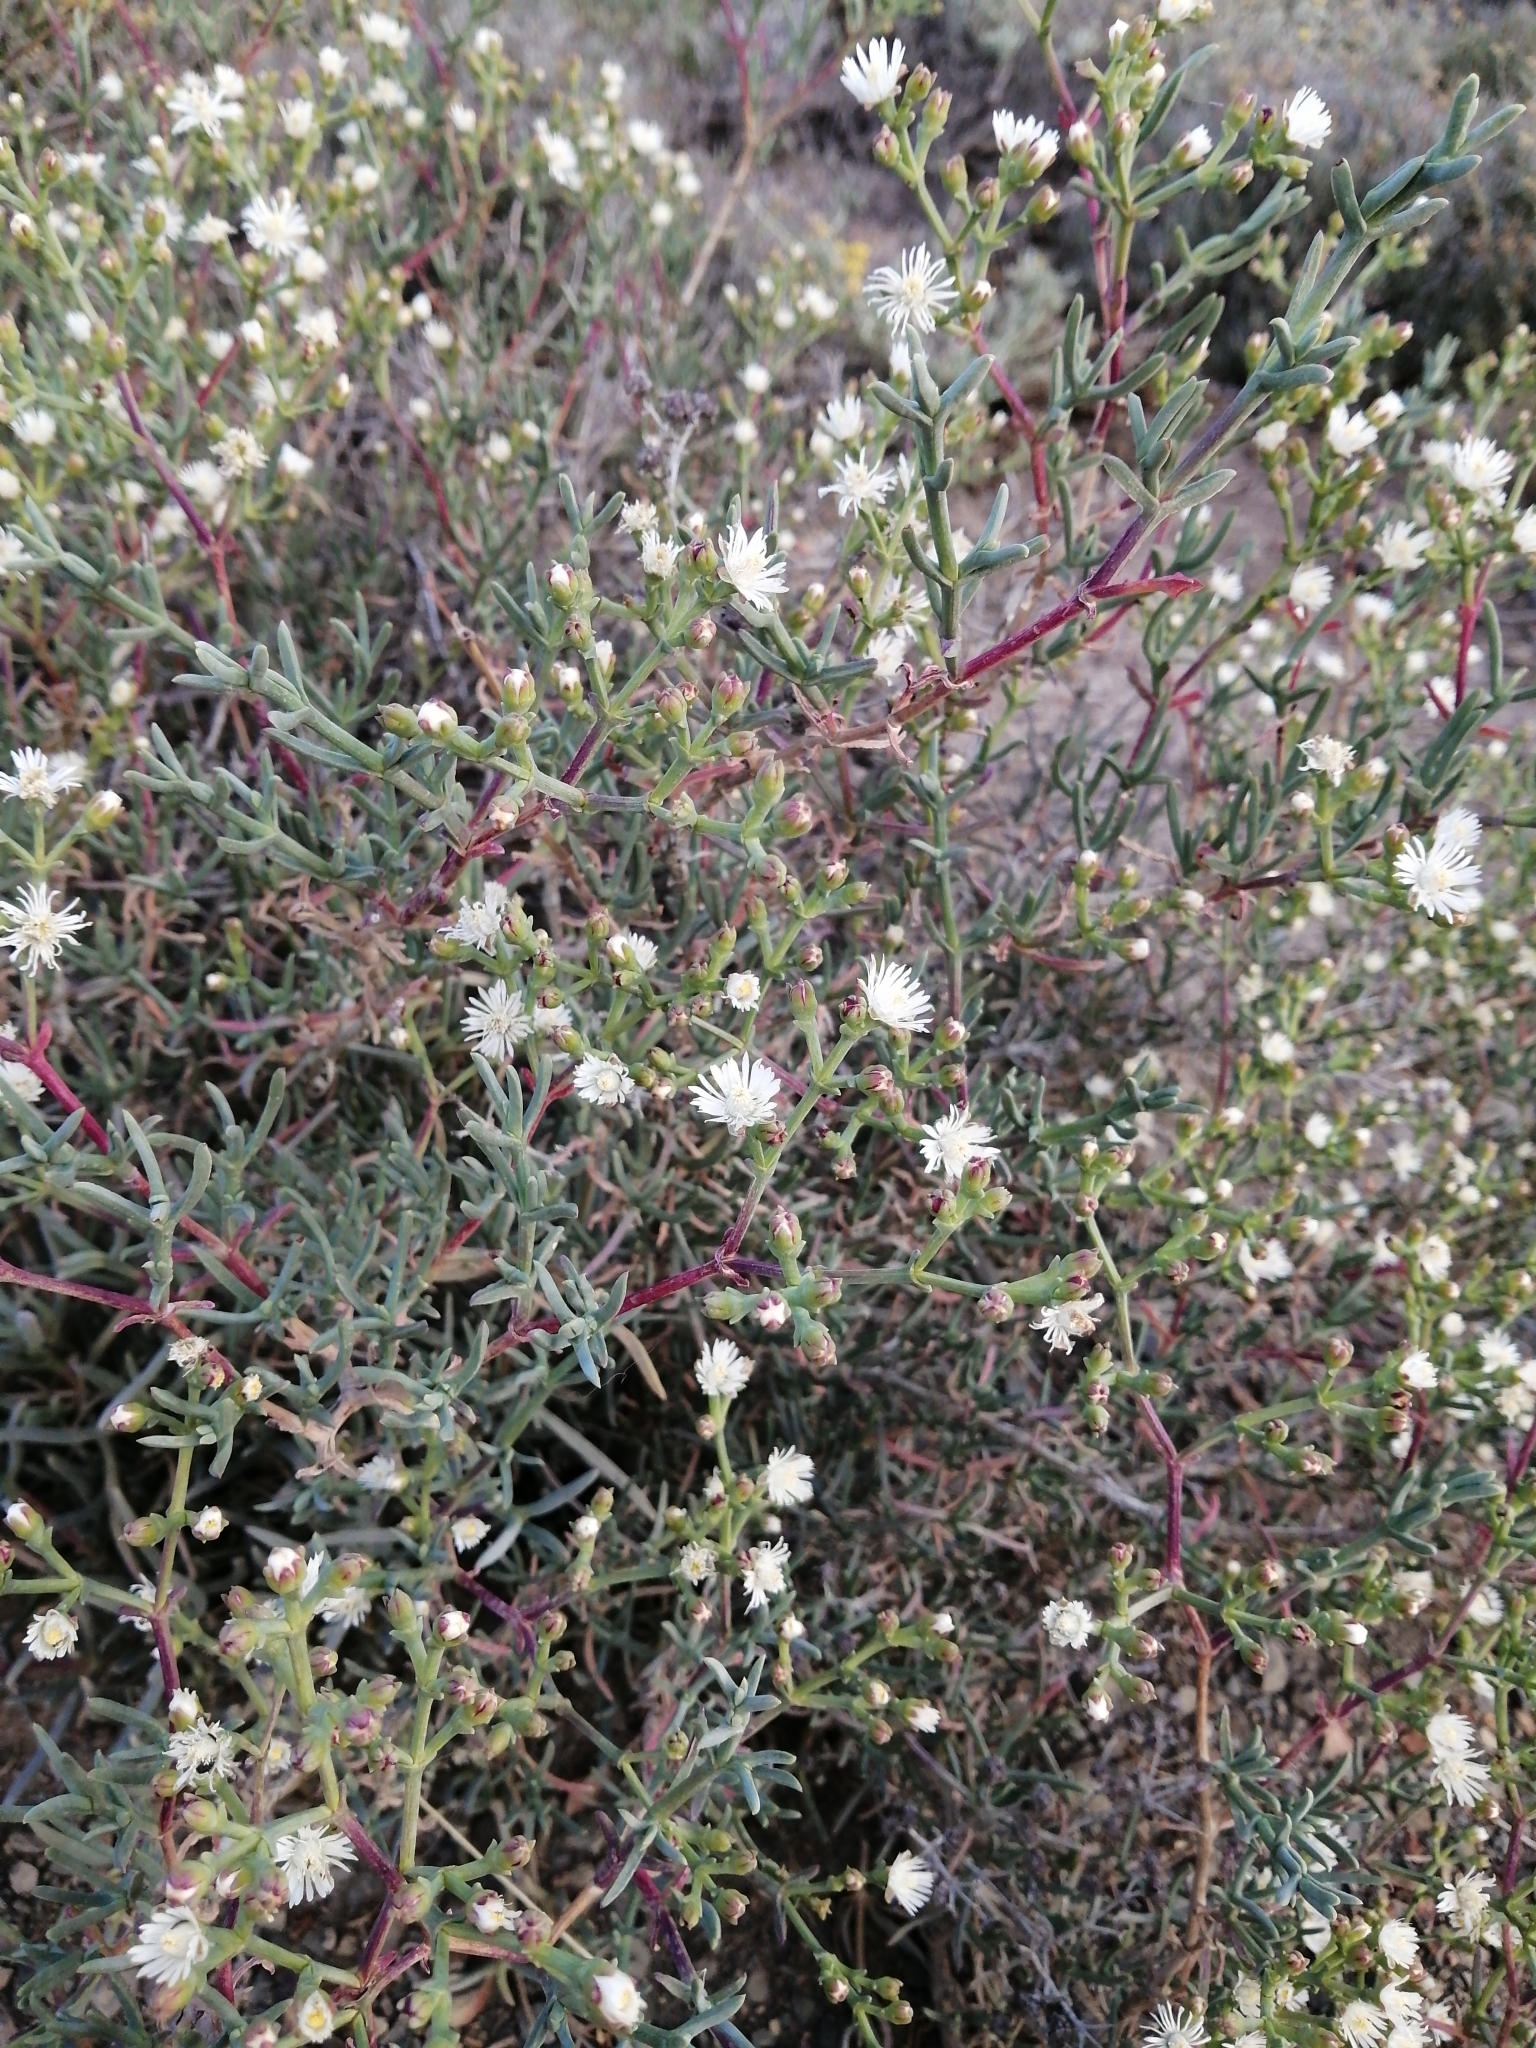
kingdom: Plantae
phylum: Tracheophyta
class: Magnoliopsida
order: Caryophyllales
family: Aizoaceae
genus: Ruschia
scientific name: Ruschia multiflora
